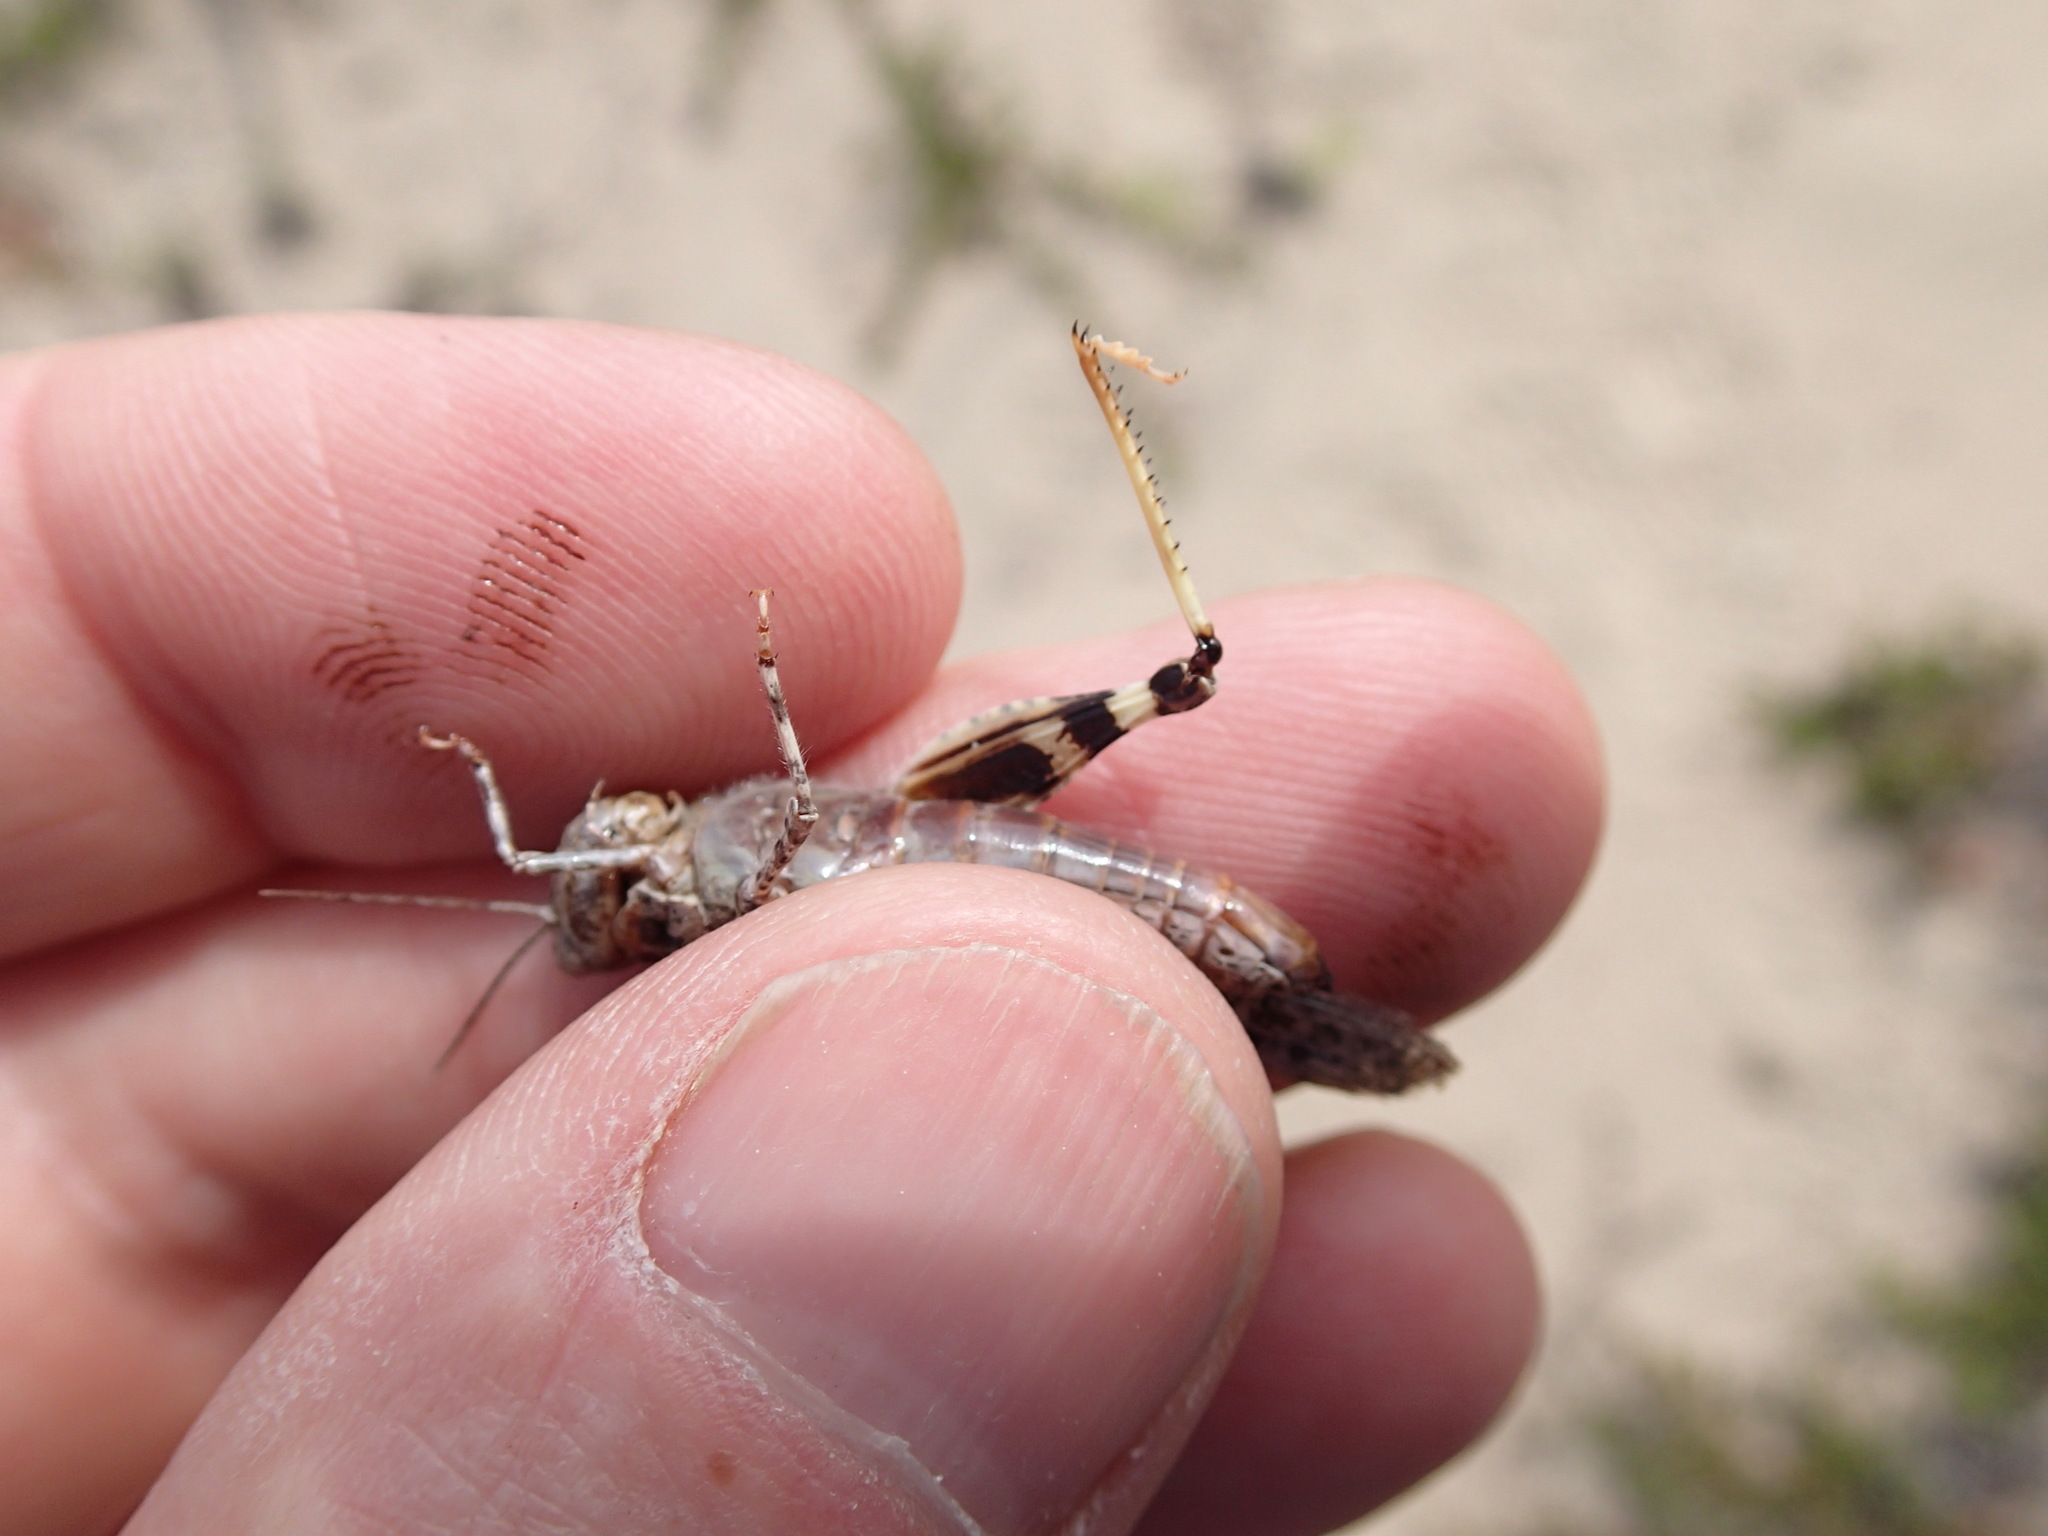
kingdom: Animalia
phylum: Arthropoda
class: Insecta
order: Orthoptera
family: Acrididae
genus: Trimerotropis
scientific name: Trimerotropis huroniana
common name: Lake huron locust
